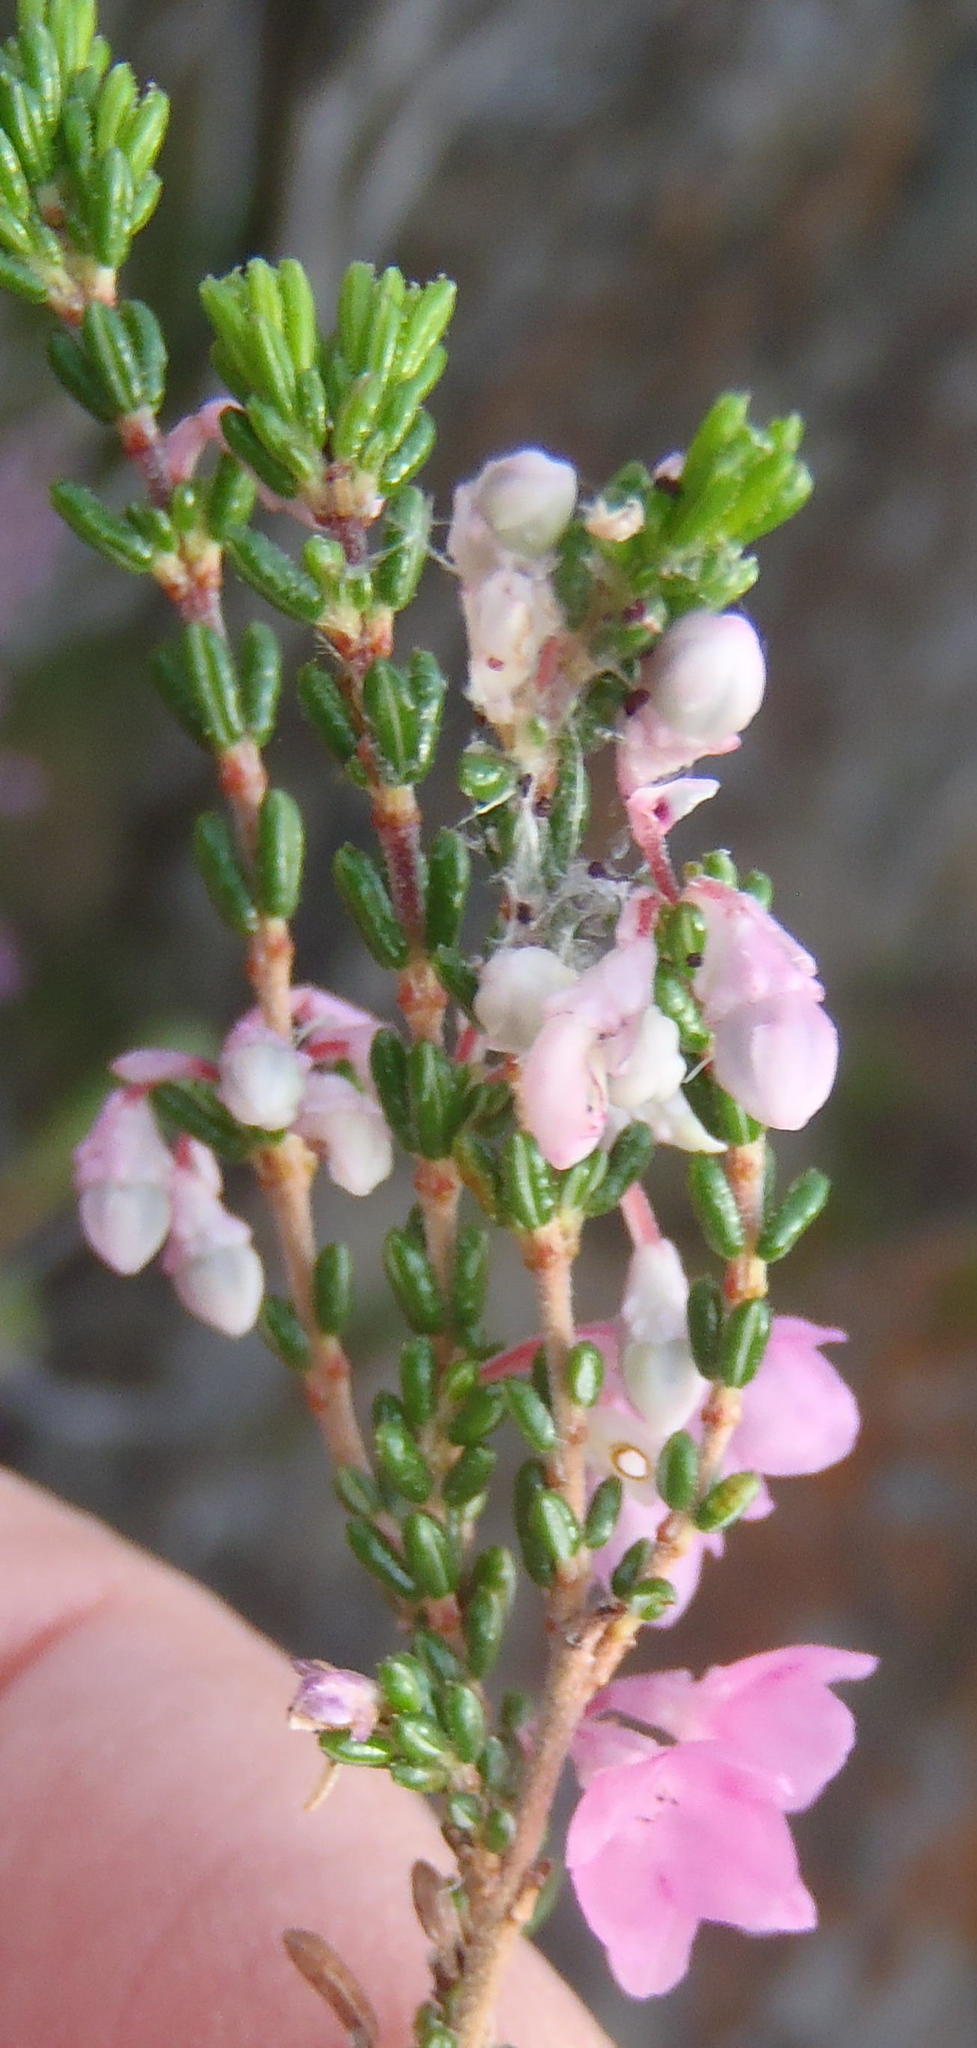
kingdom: Plantae
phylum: Tracheophyta
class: Magnoliopsida
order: Ericales
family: Ericaceae
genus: Erica
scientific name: Erica melanthera
